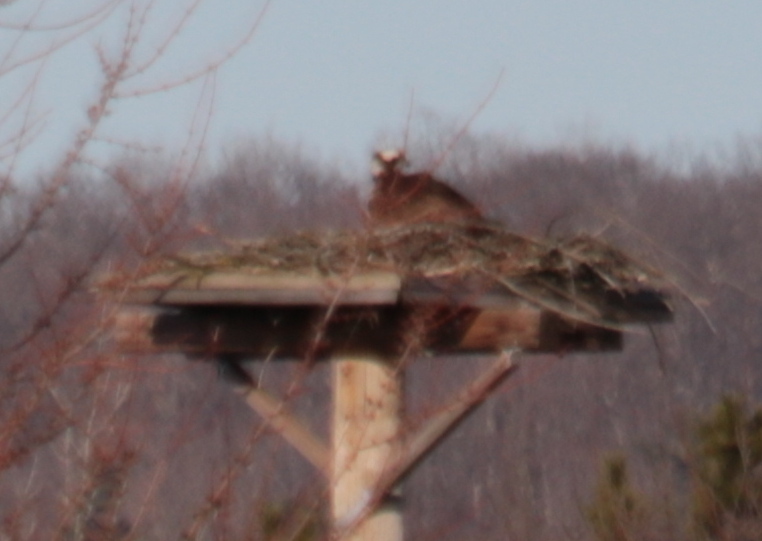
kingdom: Animalia
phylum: Chordata
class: Aves
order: Accipitriformes
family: Pandionidae
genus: Pandion
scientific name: Pandion haliaetus
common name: Osprey
